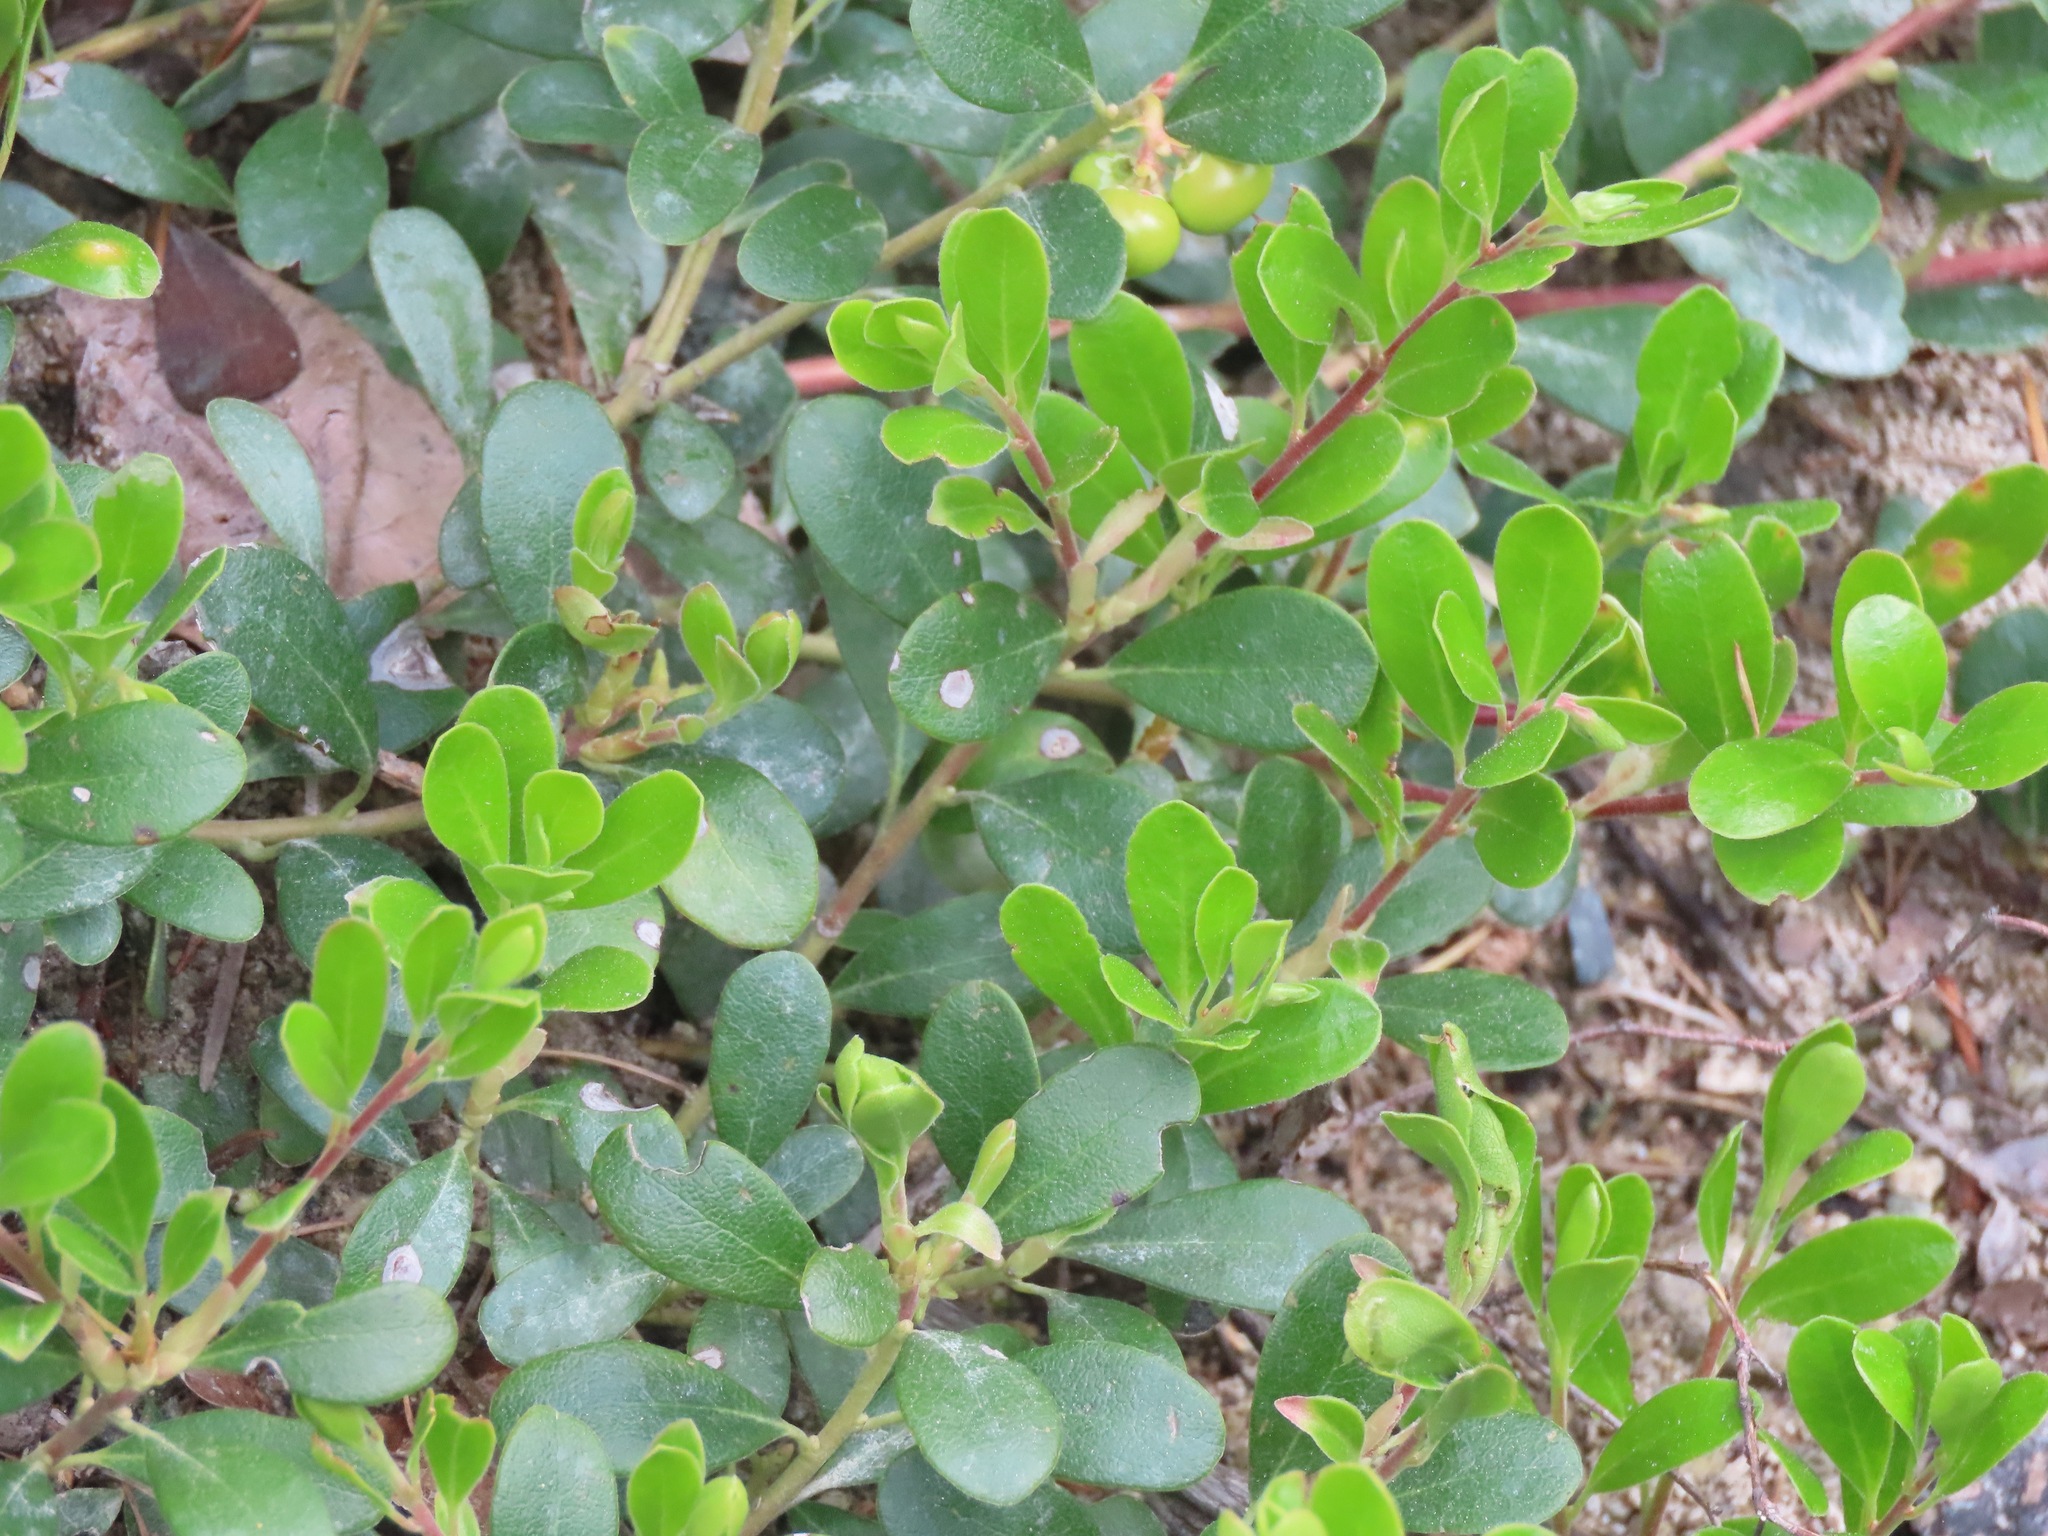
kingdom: Plantae
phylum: Tracheophyta
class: Magnoliopsida
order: Ericales
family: Ericaceae
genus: Arctostaphylos
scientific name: Arctostaphylos uva-ursi
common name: Bearberry
